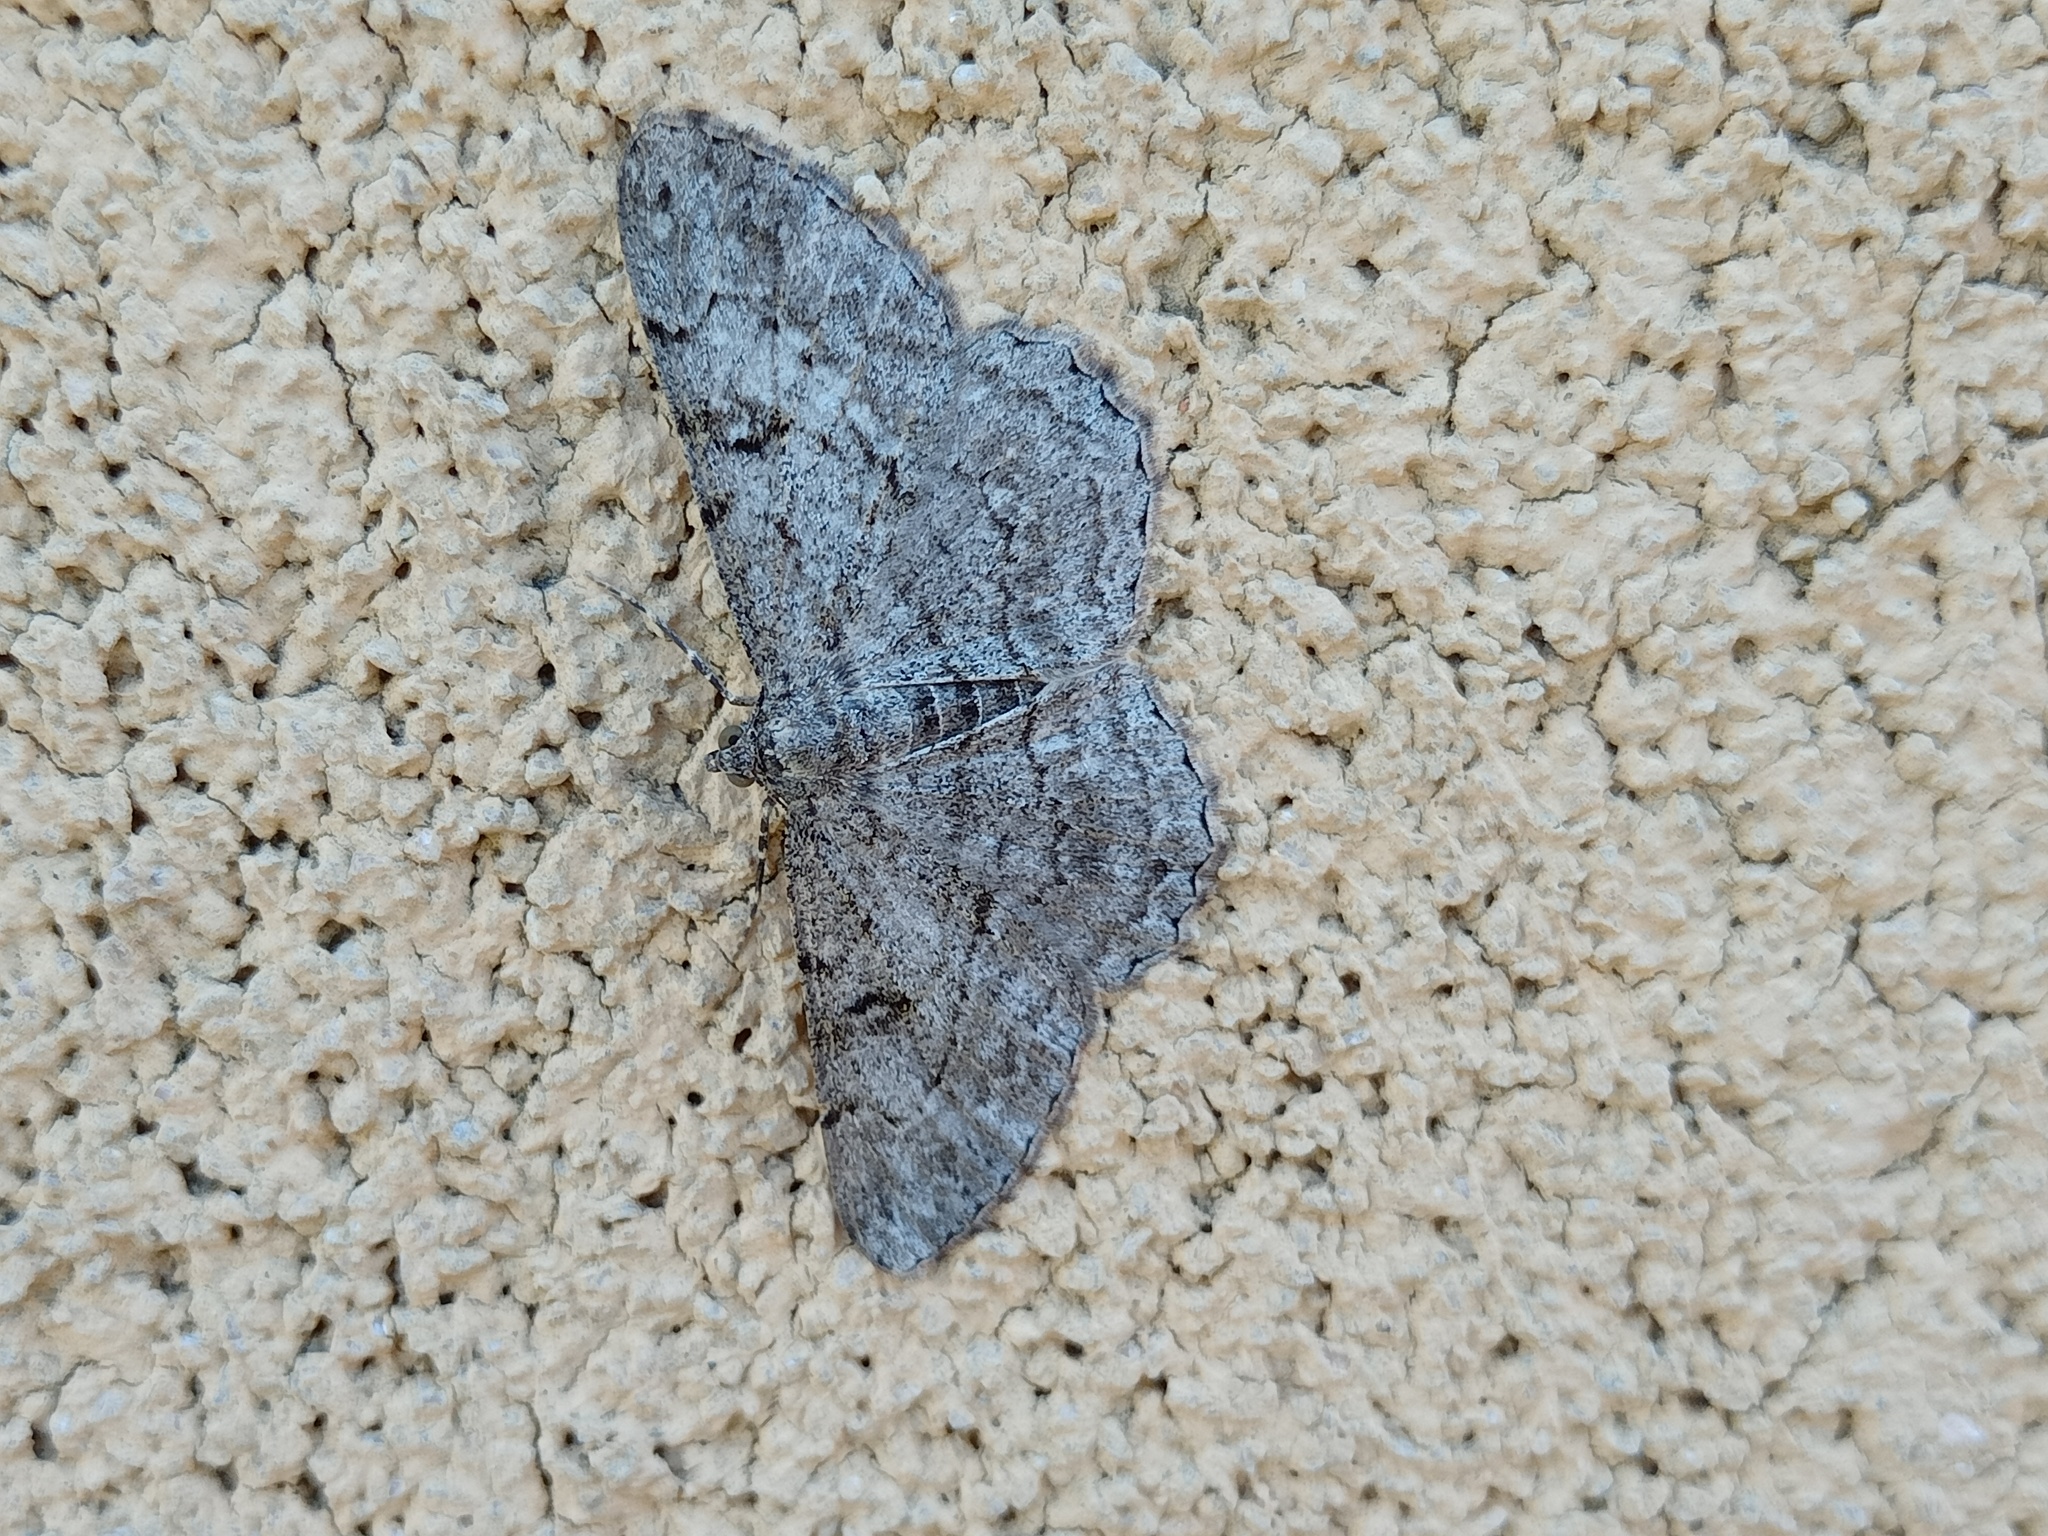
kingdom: Animalia
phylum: Arthropoda
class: Insecta
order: Lepidoptera
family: Geometridae
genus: Peribatodes
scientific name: Peribatodes rhomboidaria
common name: Willow beauty
